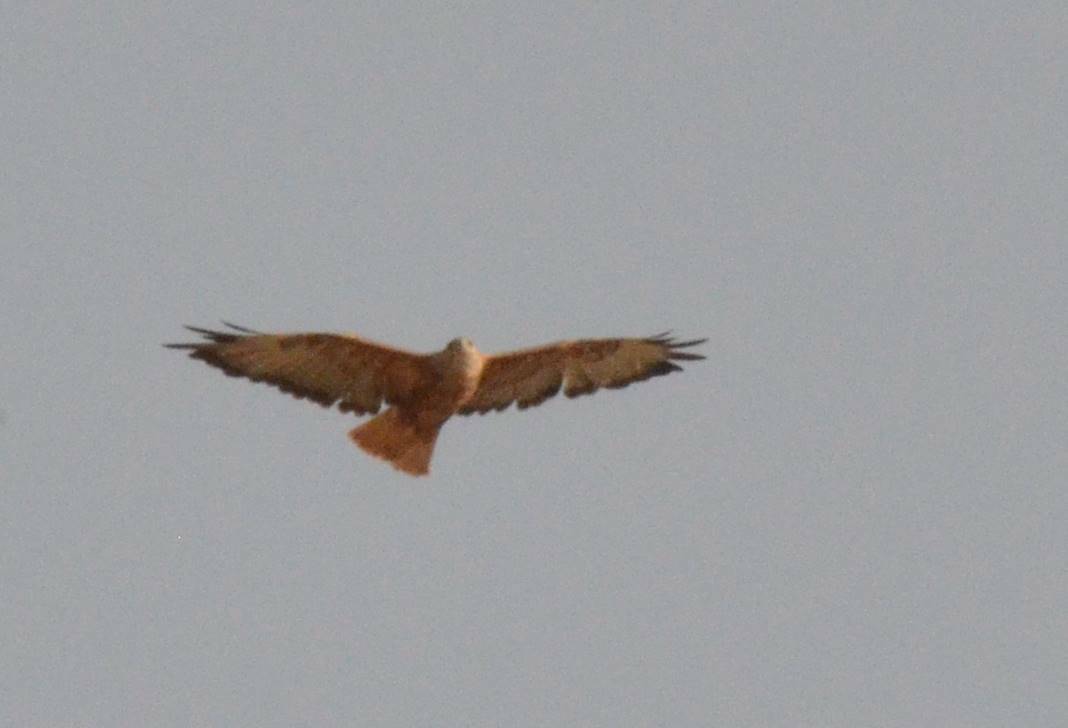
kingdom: Animalia
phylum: Chordata
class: Aves
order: Accipitriformes
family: Accipitridae
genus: Buteo
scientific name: Buteo rufinus
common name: Long-legged buzzard
